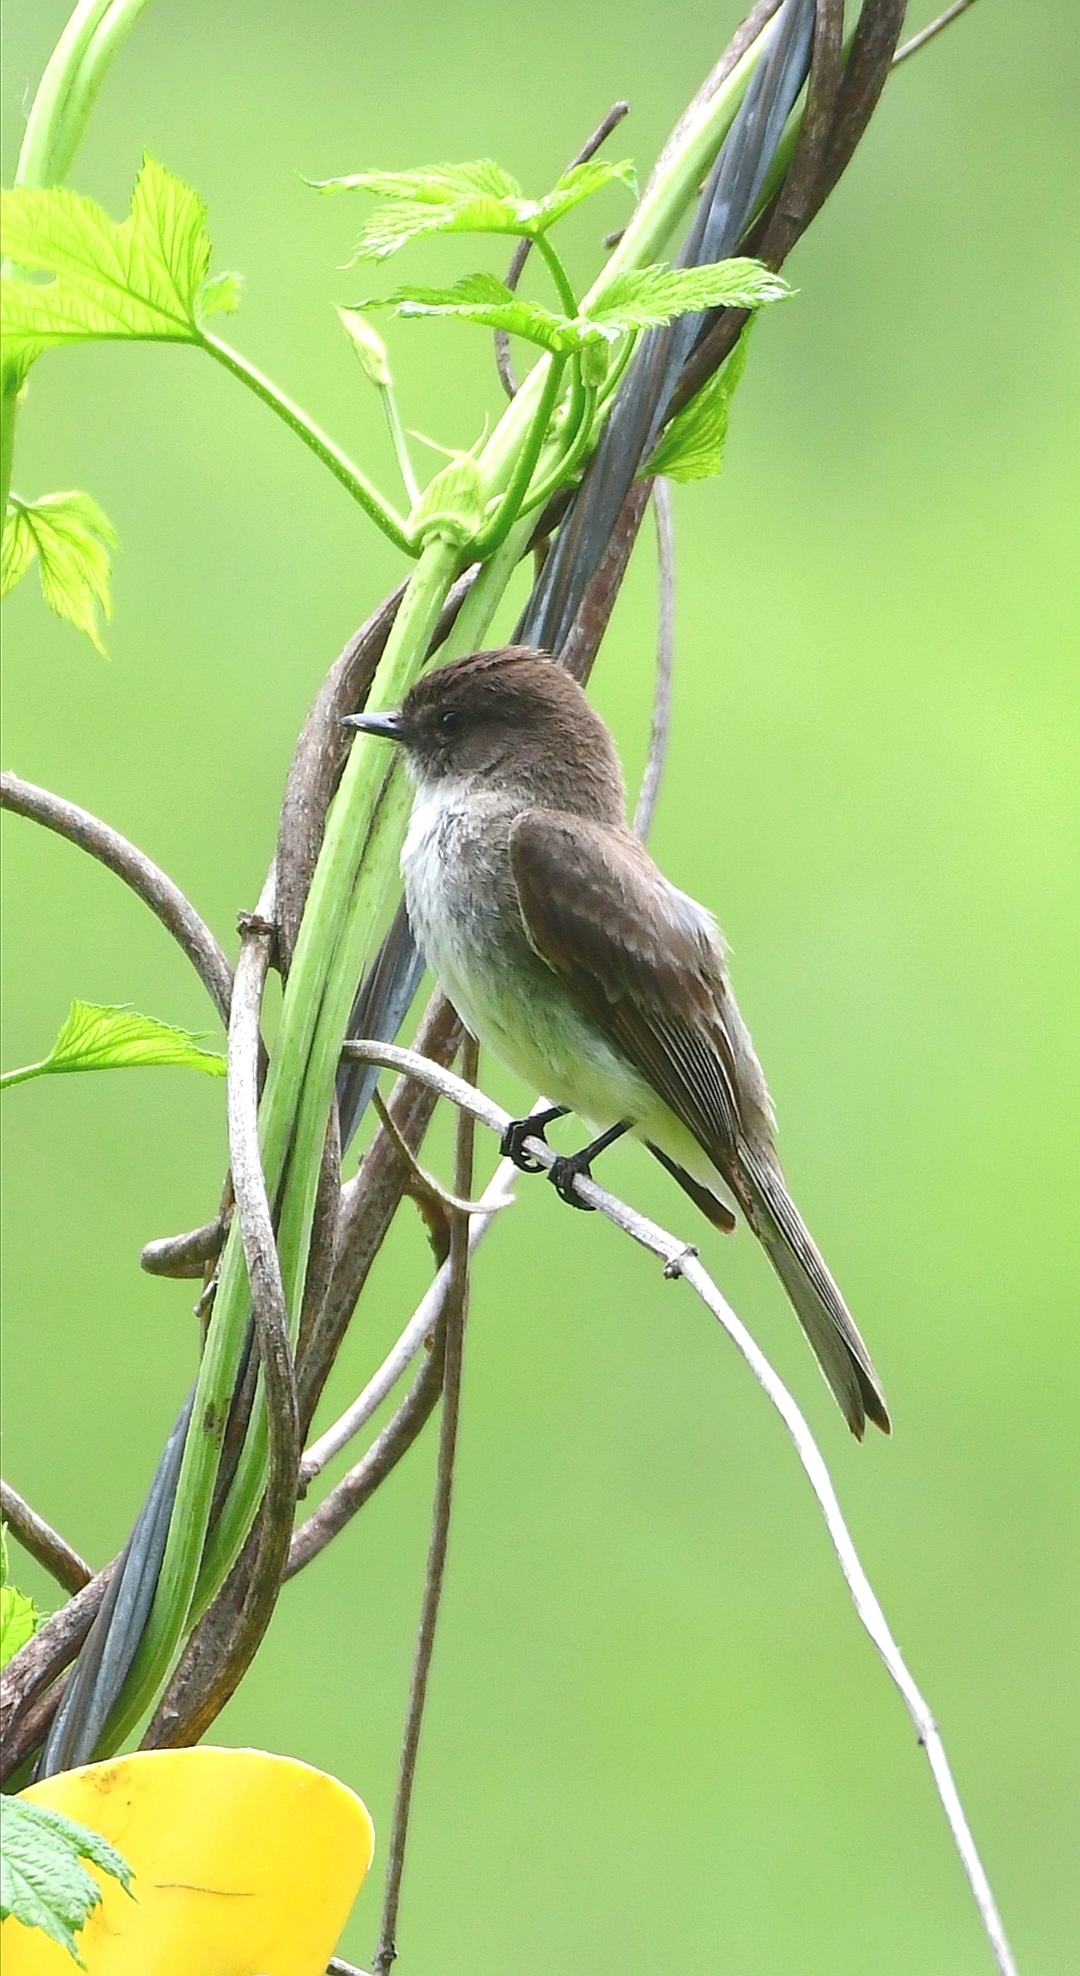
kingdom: Animalia
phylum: Chordata
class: Aves
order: Passeriformes
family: Tyrannidae
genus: Sayornis
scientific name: Sayornis phoebe
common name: Eastern phoebe
